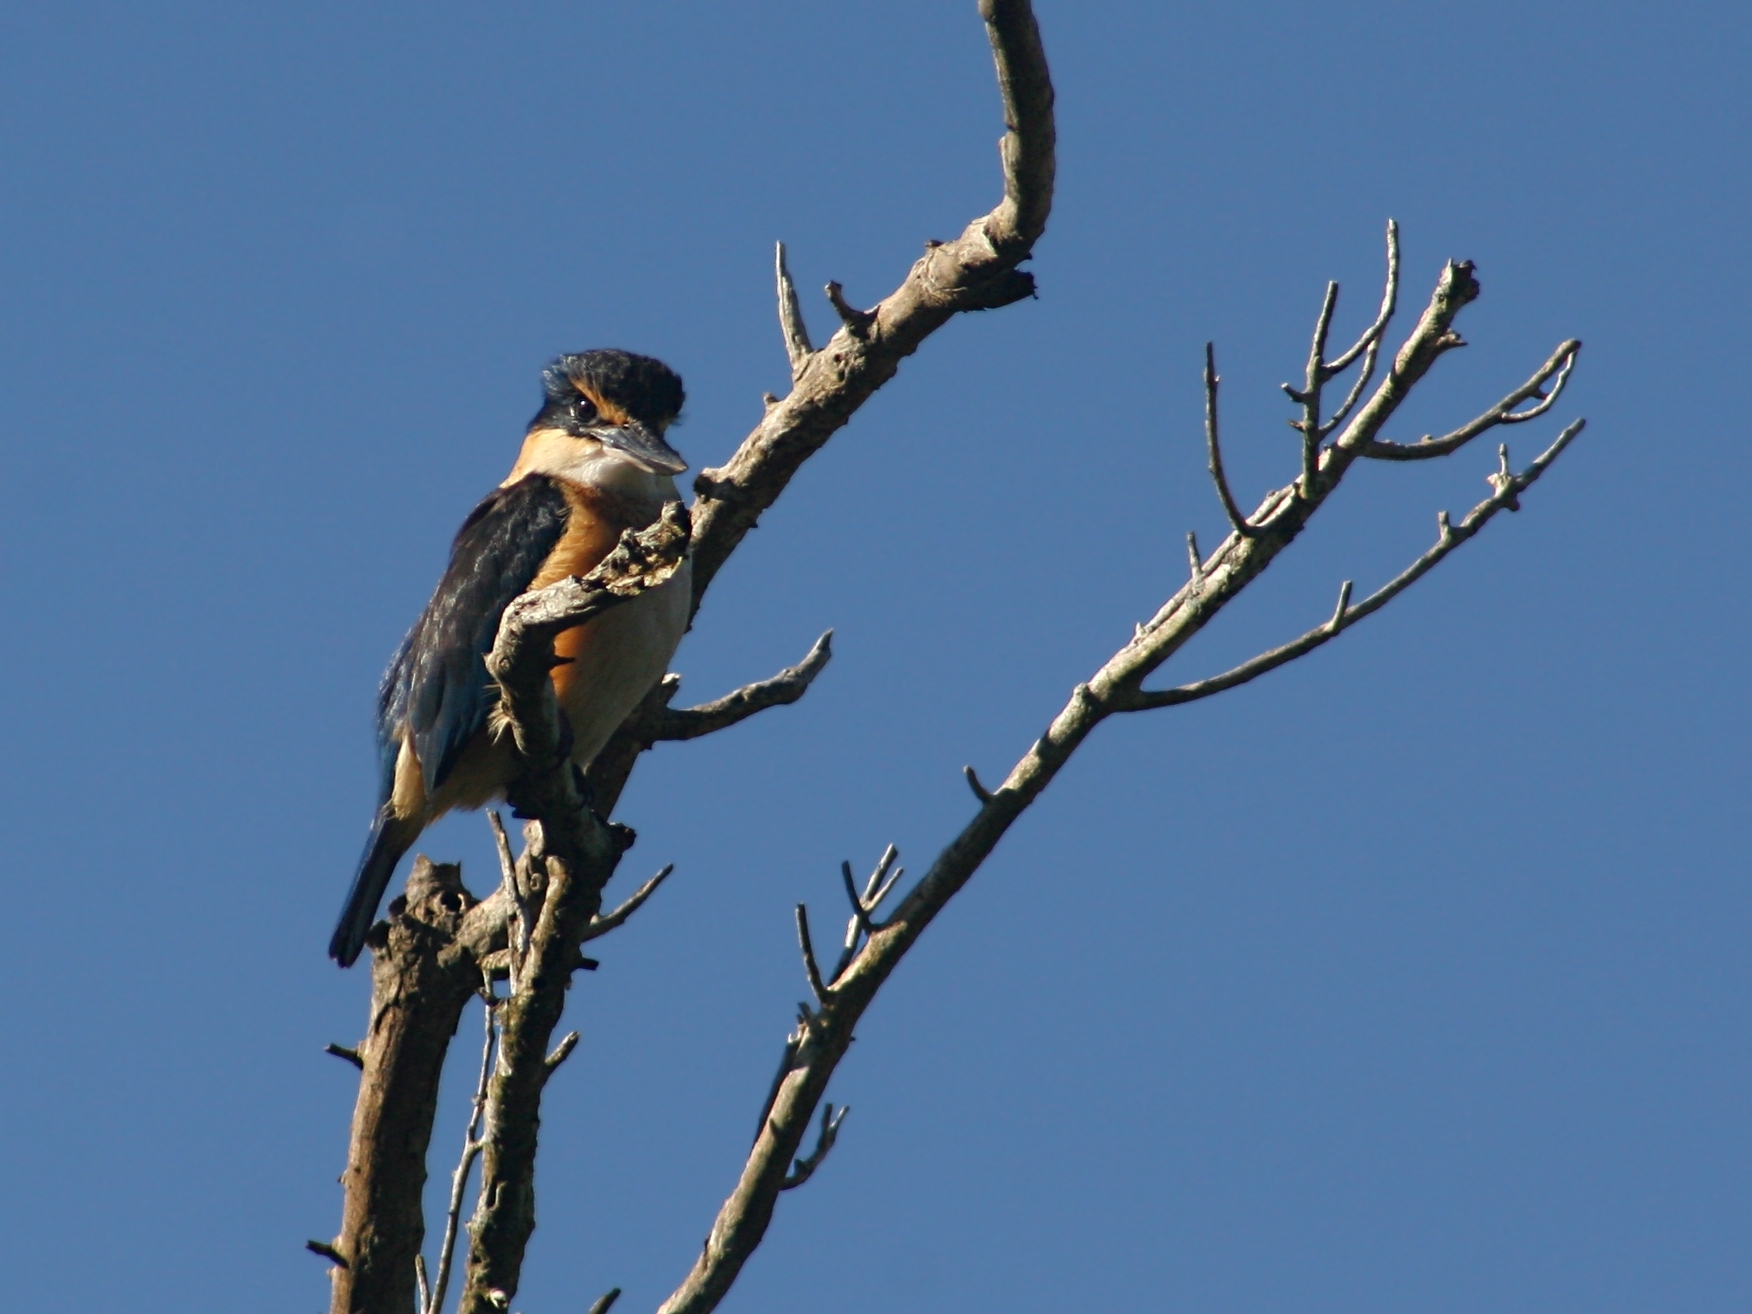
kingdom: Animalia
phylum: Chordata
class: Aves
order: Coraciiformes
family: Alcedinidae
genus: Todiramphus
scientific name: Todiramphus sanctus
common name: Sacred kingfisher
